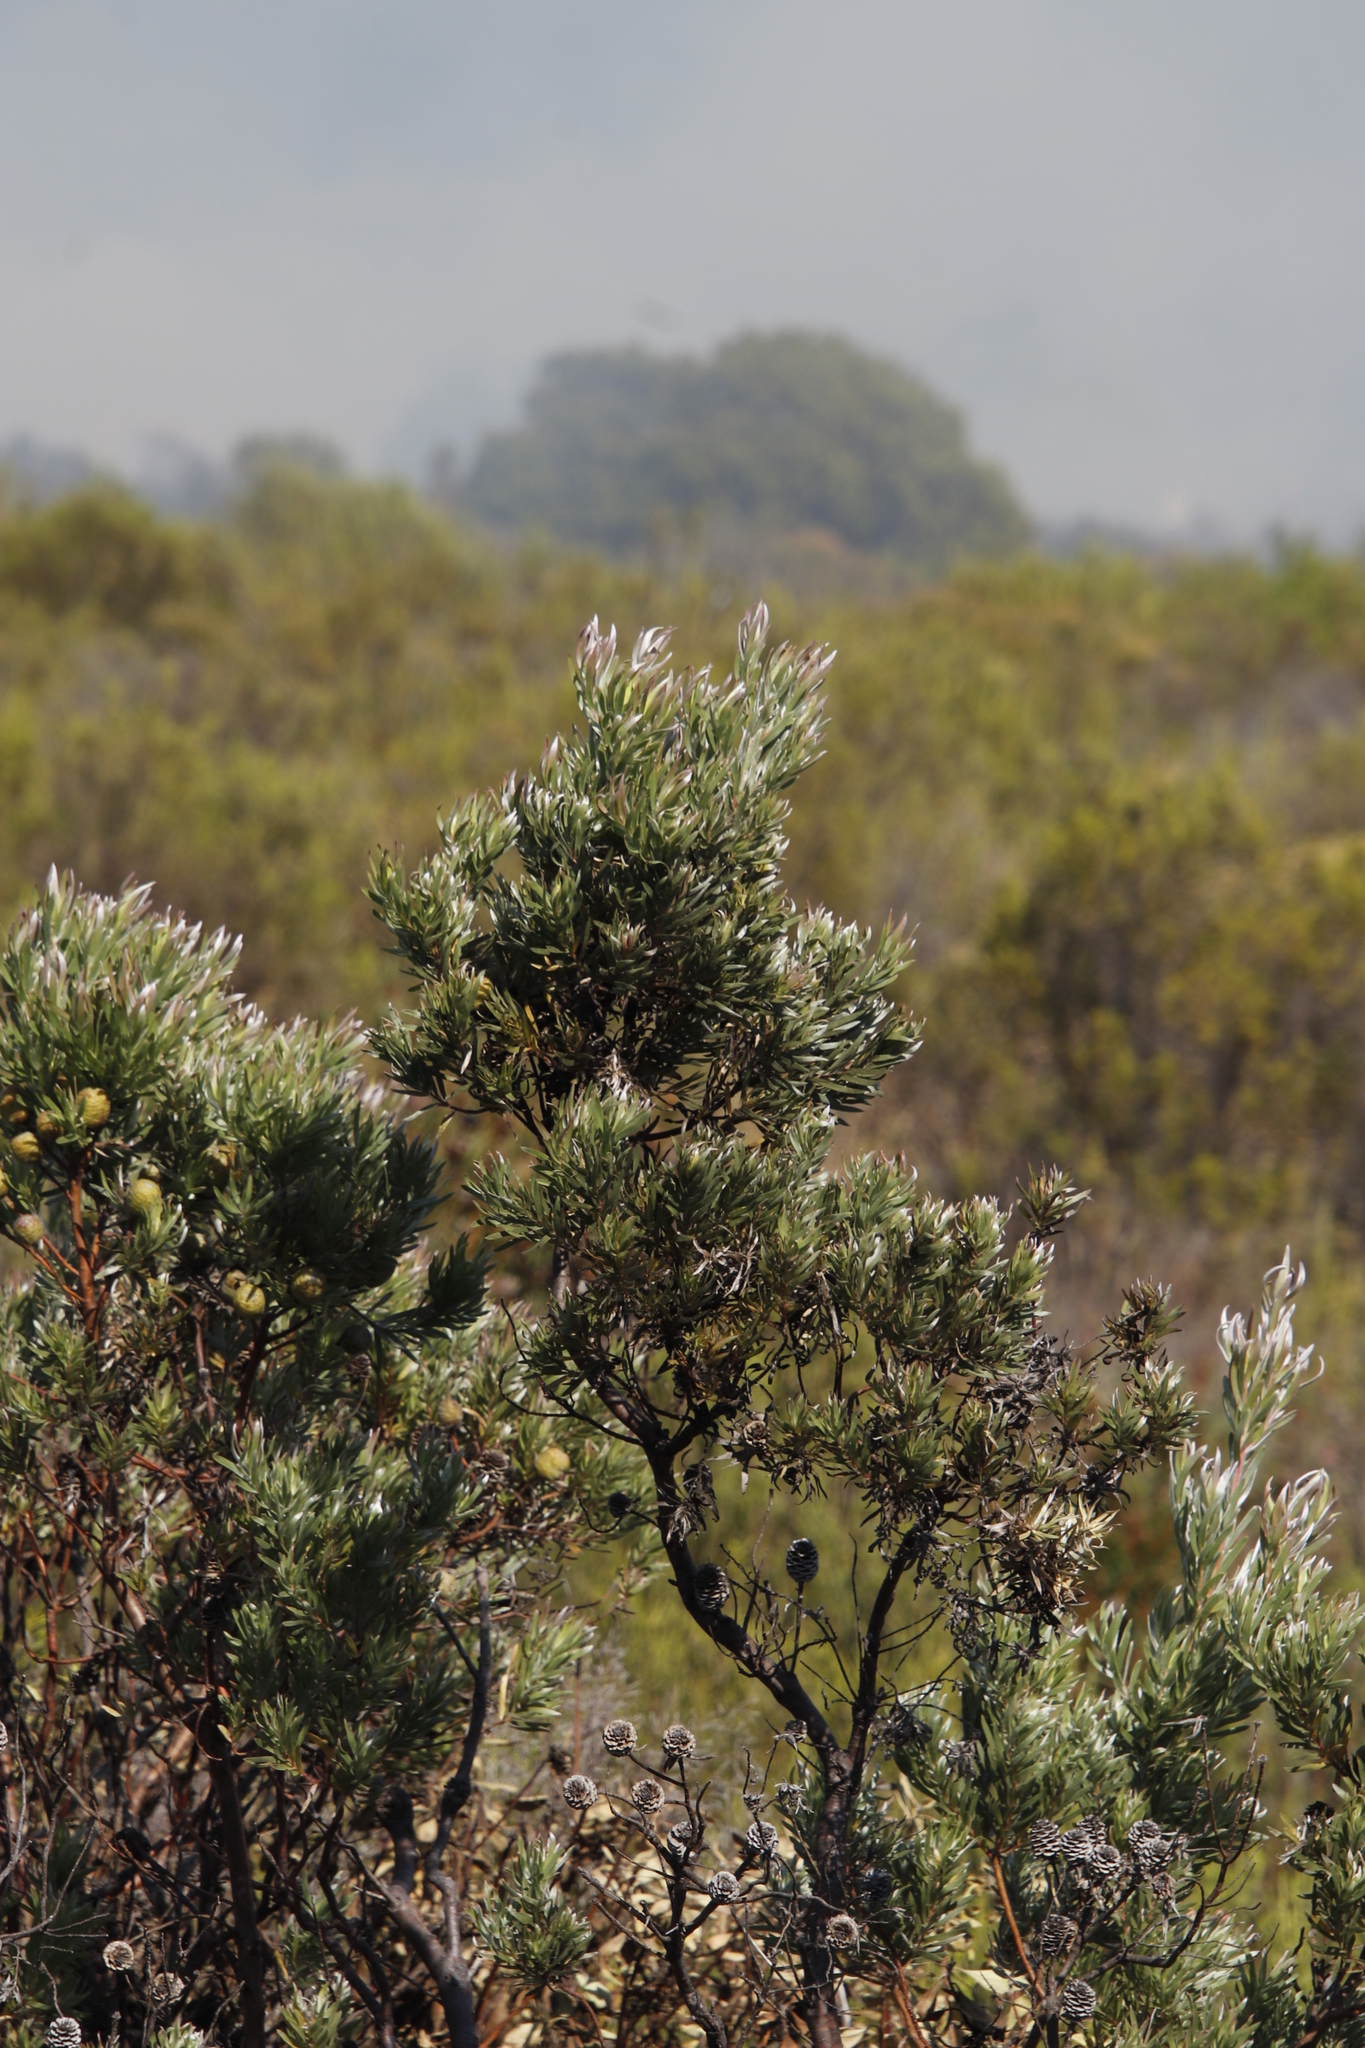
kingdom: Plantae
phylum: Tracheophyta
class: Magnoliopsida
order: Proteales
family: Proteaceae
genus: Leucadendron
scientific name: Leucadendron floridum
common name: Flats conebush
